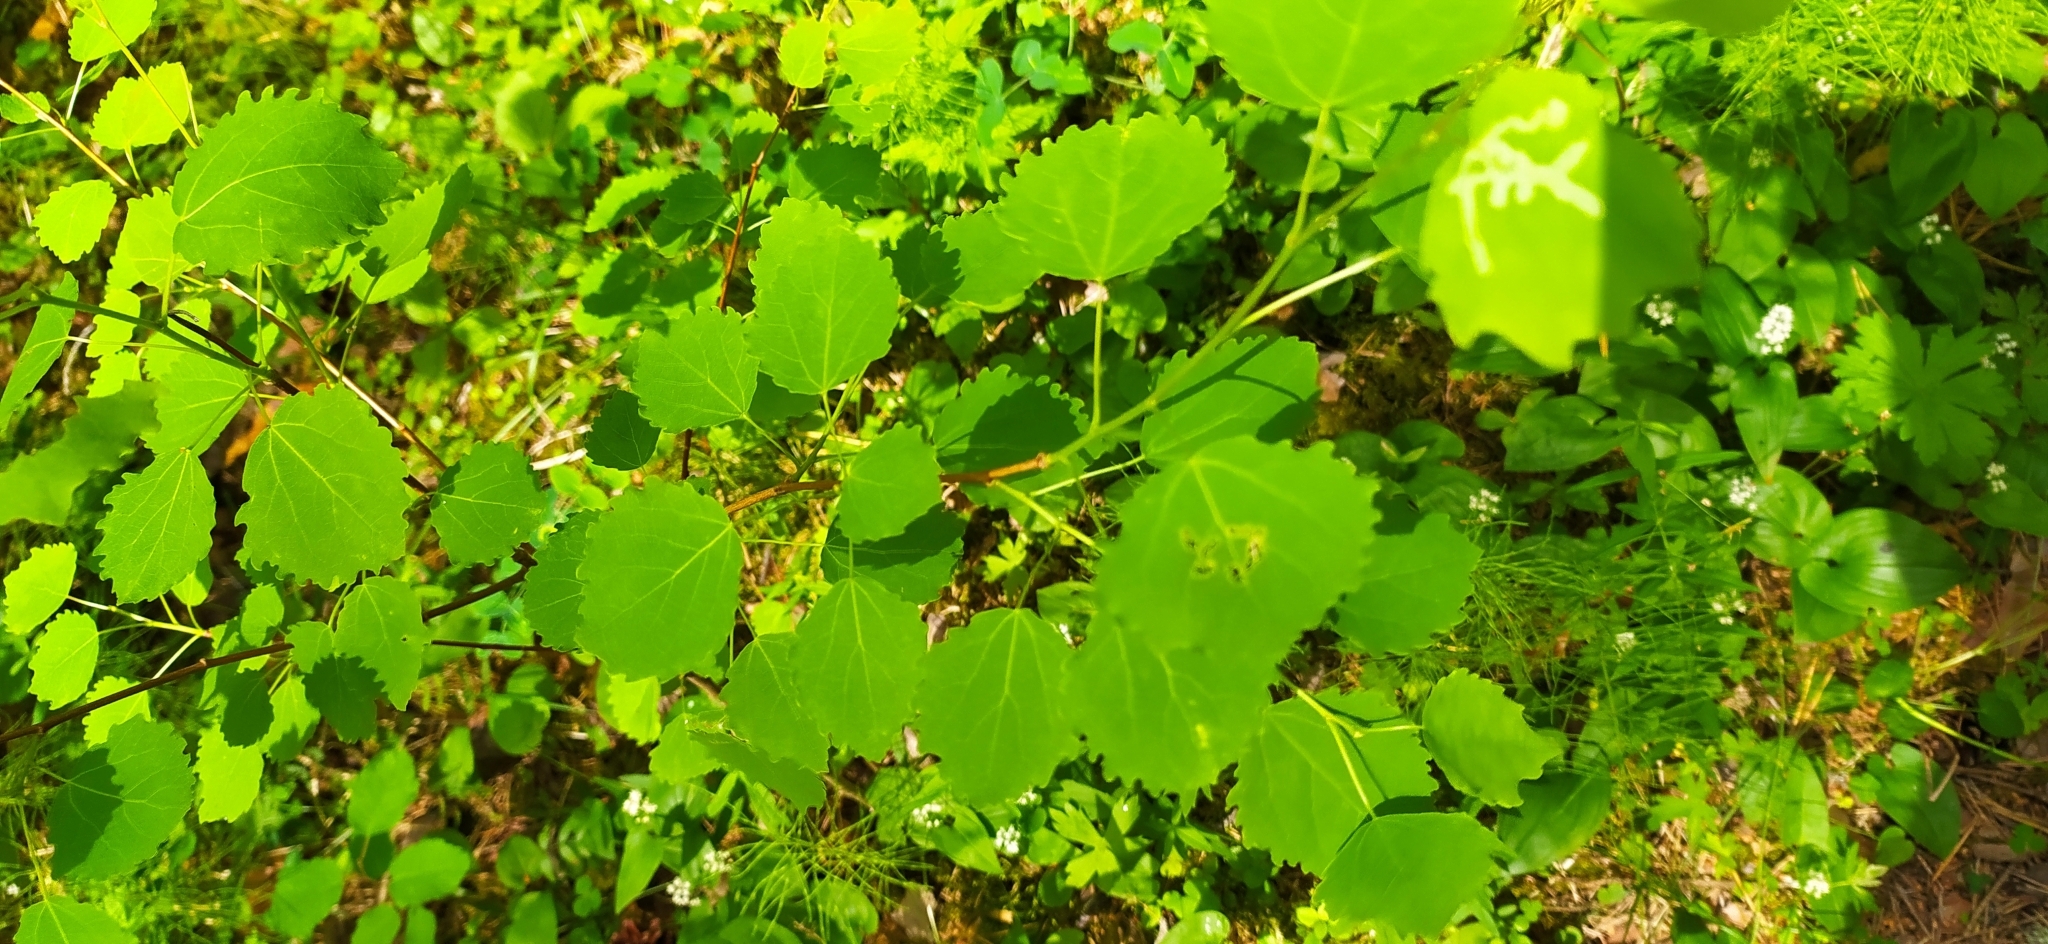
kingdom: Plantae
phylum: Tracheophyta
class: Magnoliopsida
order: Malpighiales
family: Salicaceae
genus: Populus
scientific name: Populus tremula
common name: European aspen
